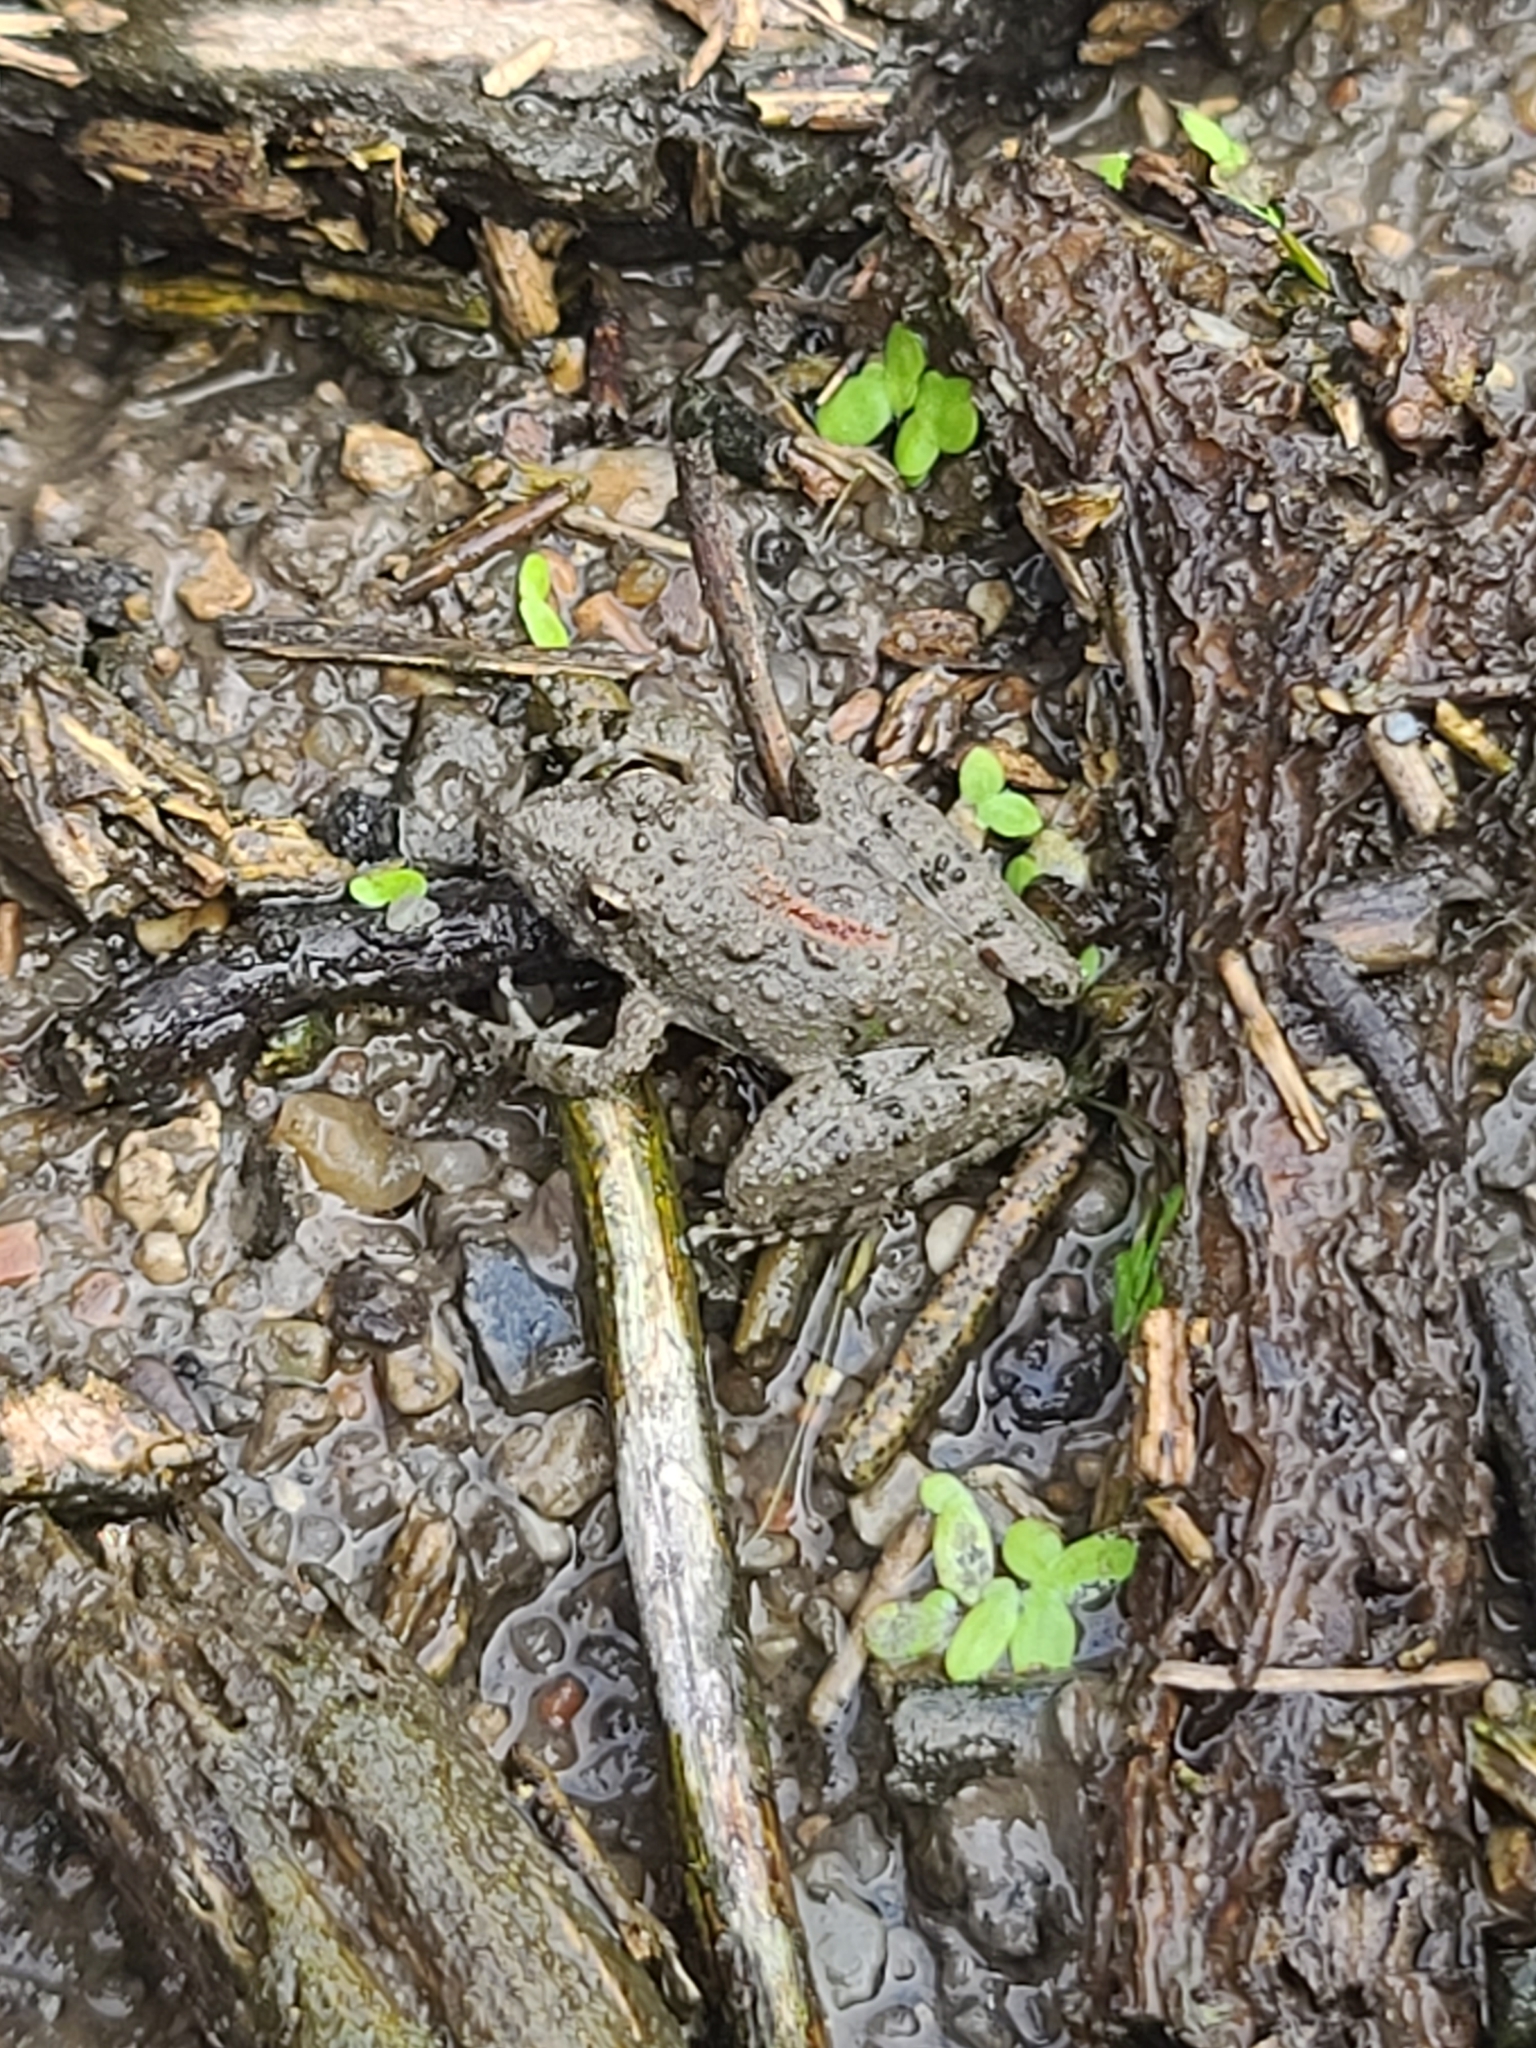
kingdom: Animalia
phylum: Chordata
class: Amphibia
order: Anura
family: Hylidae
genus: Acris
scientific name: Acris blanchardi
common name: Blanchard's cricket frog
